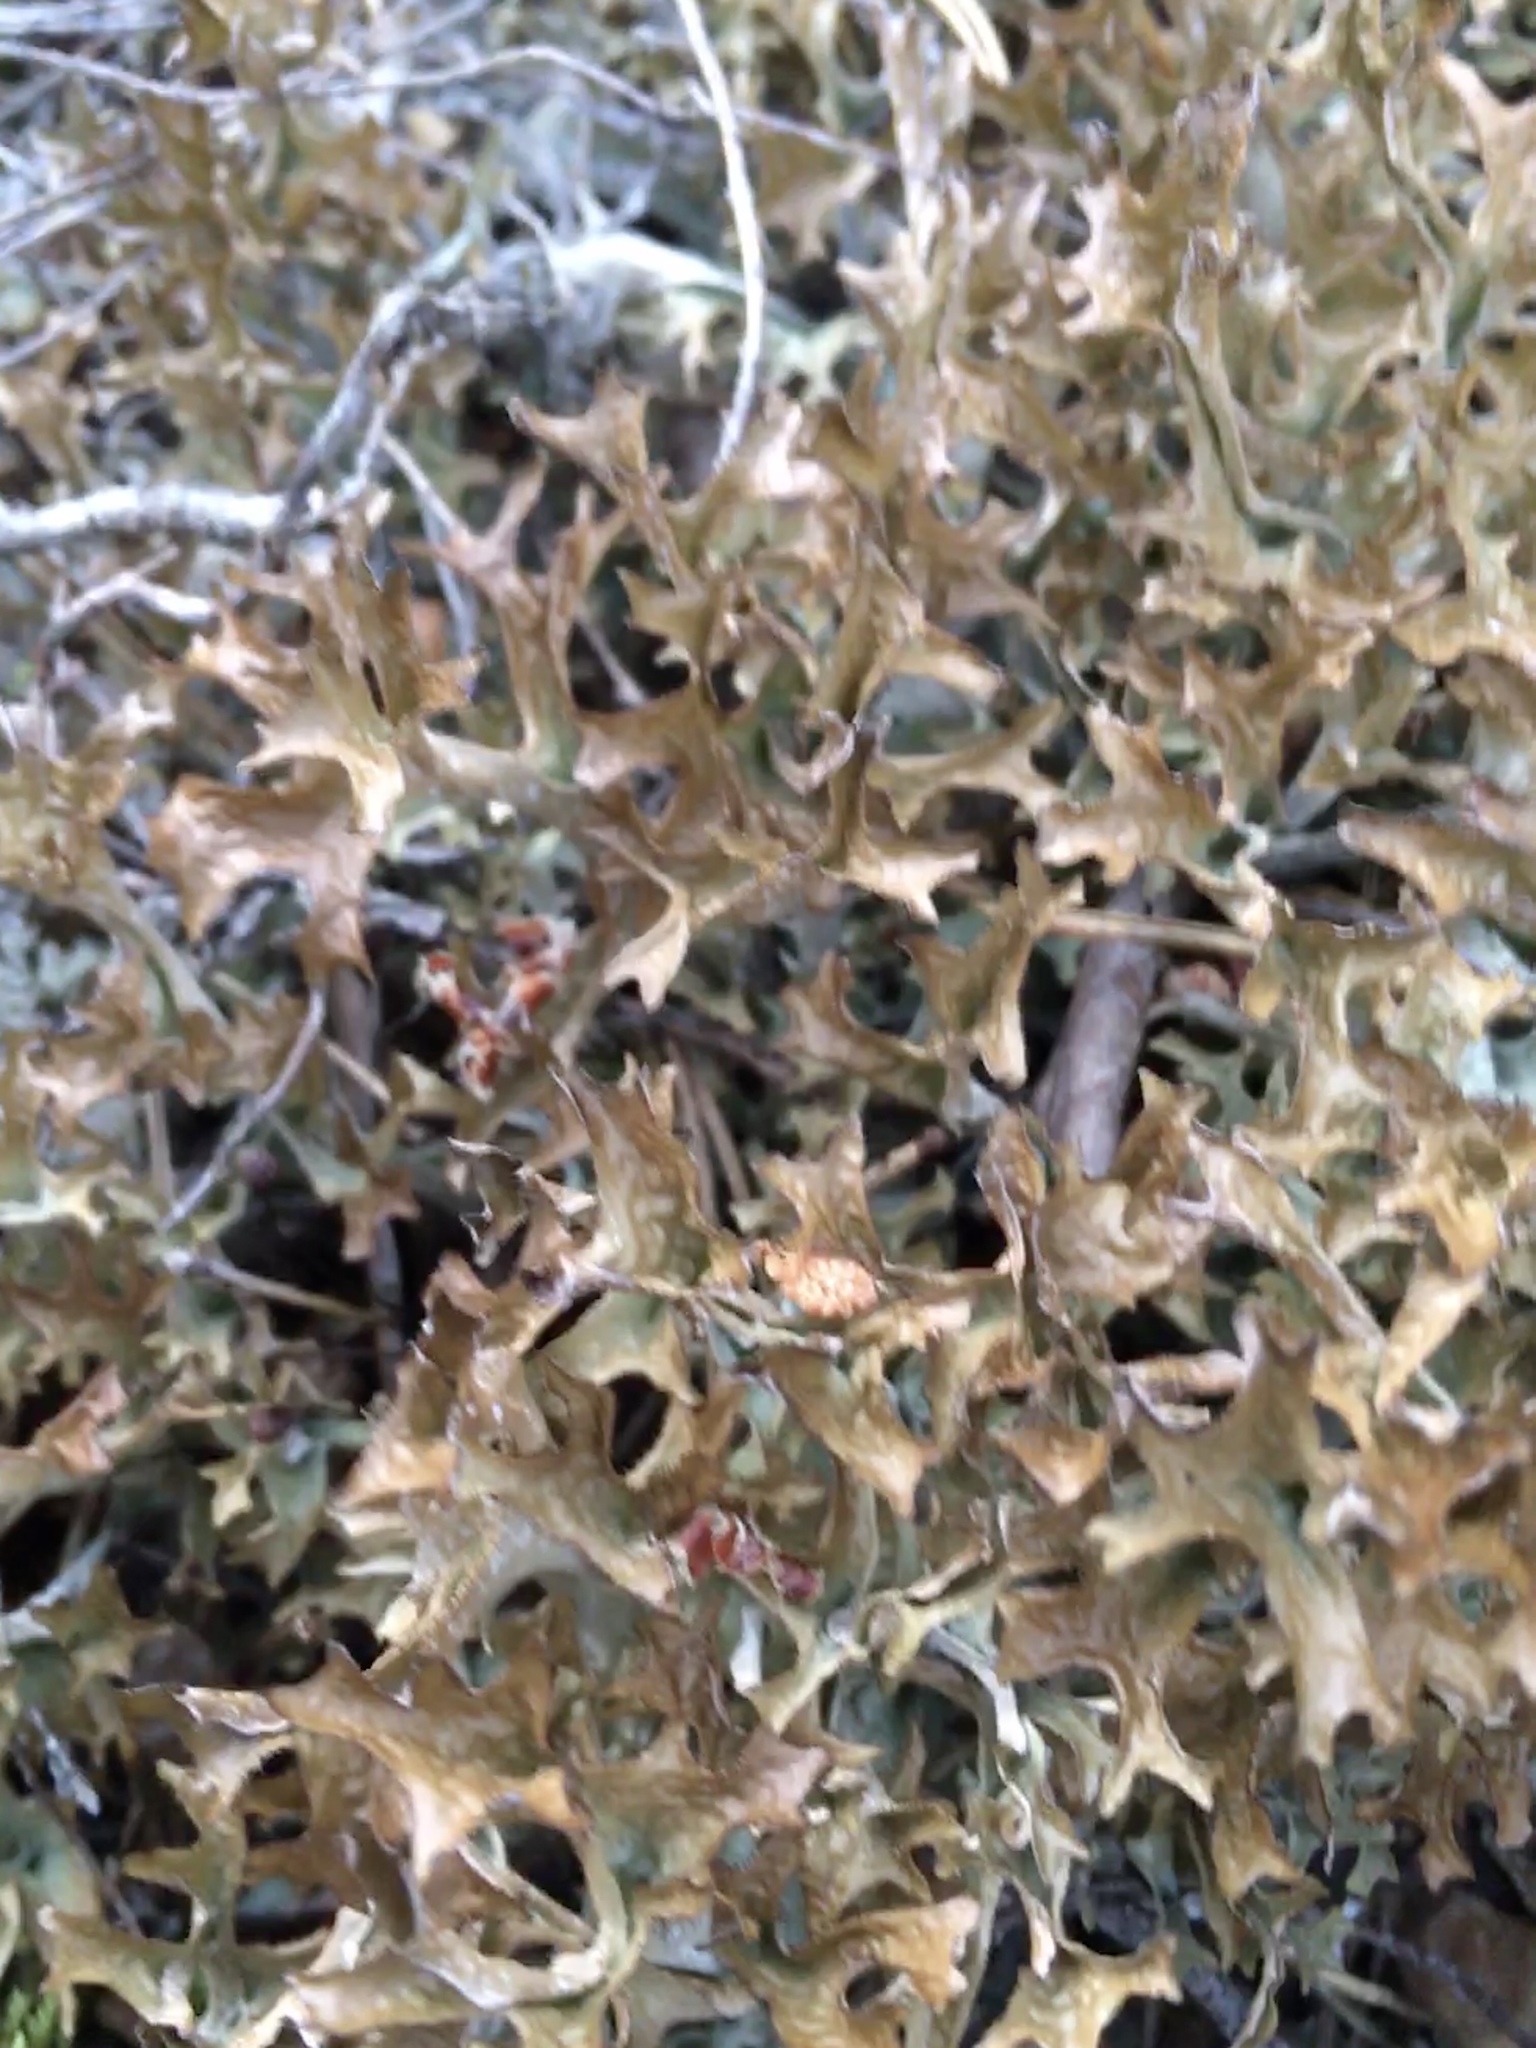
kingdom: Fungi
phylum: Ascomycota
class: Lecanoromycetes
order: Lecanorales
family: Parmeliaceae
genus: Cetraria
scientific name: Cetraria islandica
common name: Iceland lichen
